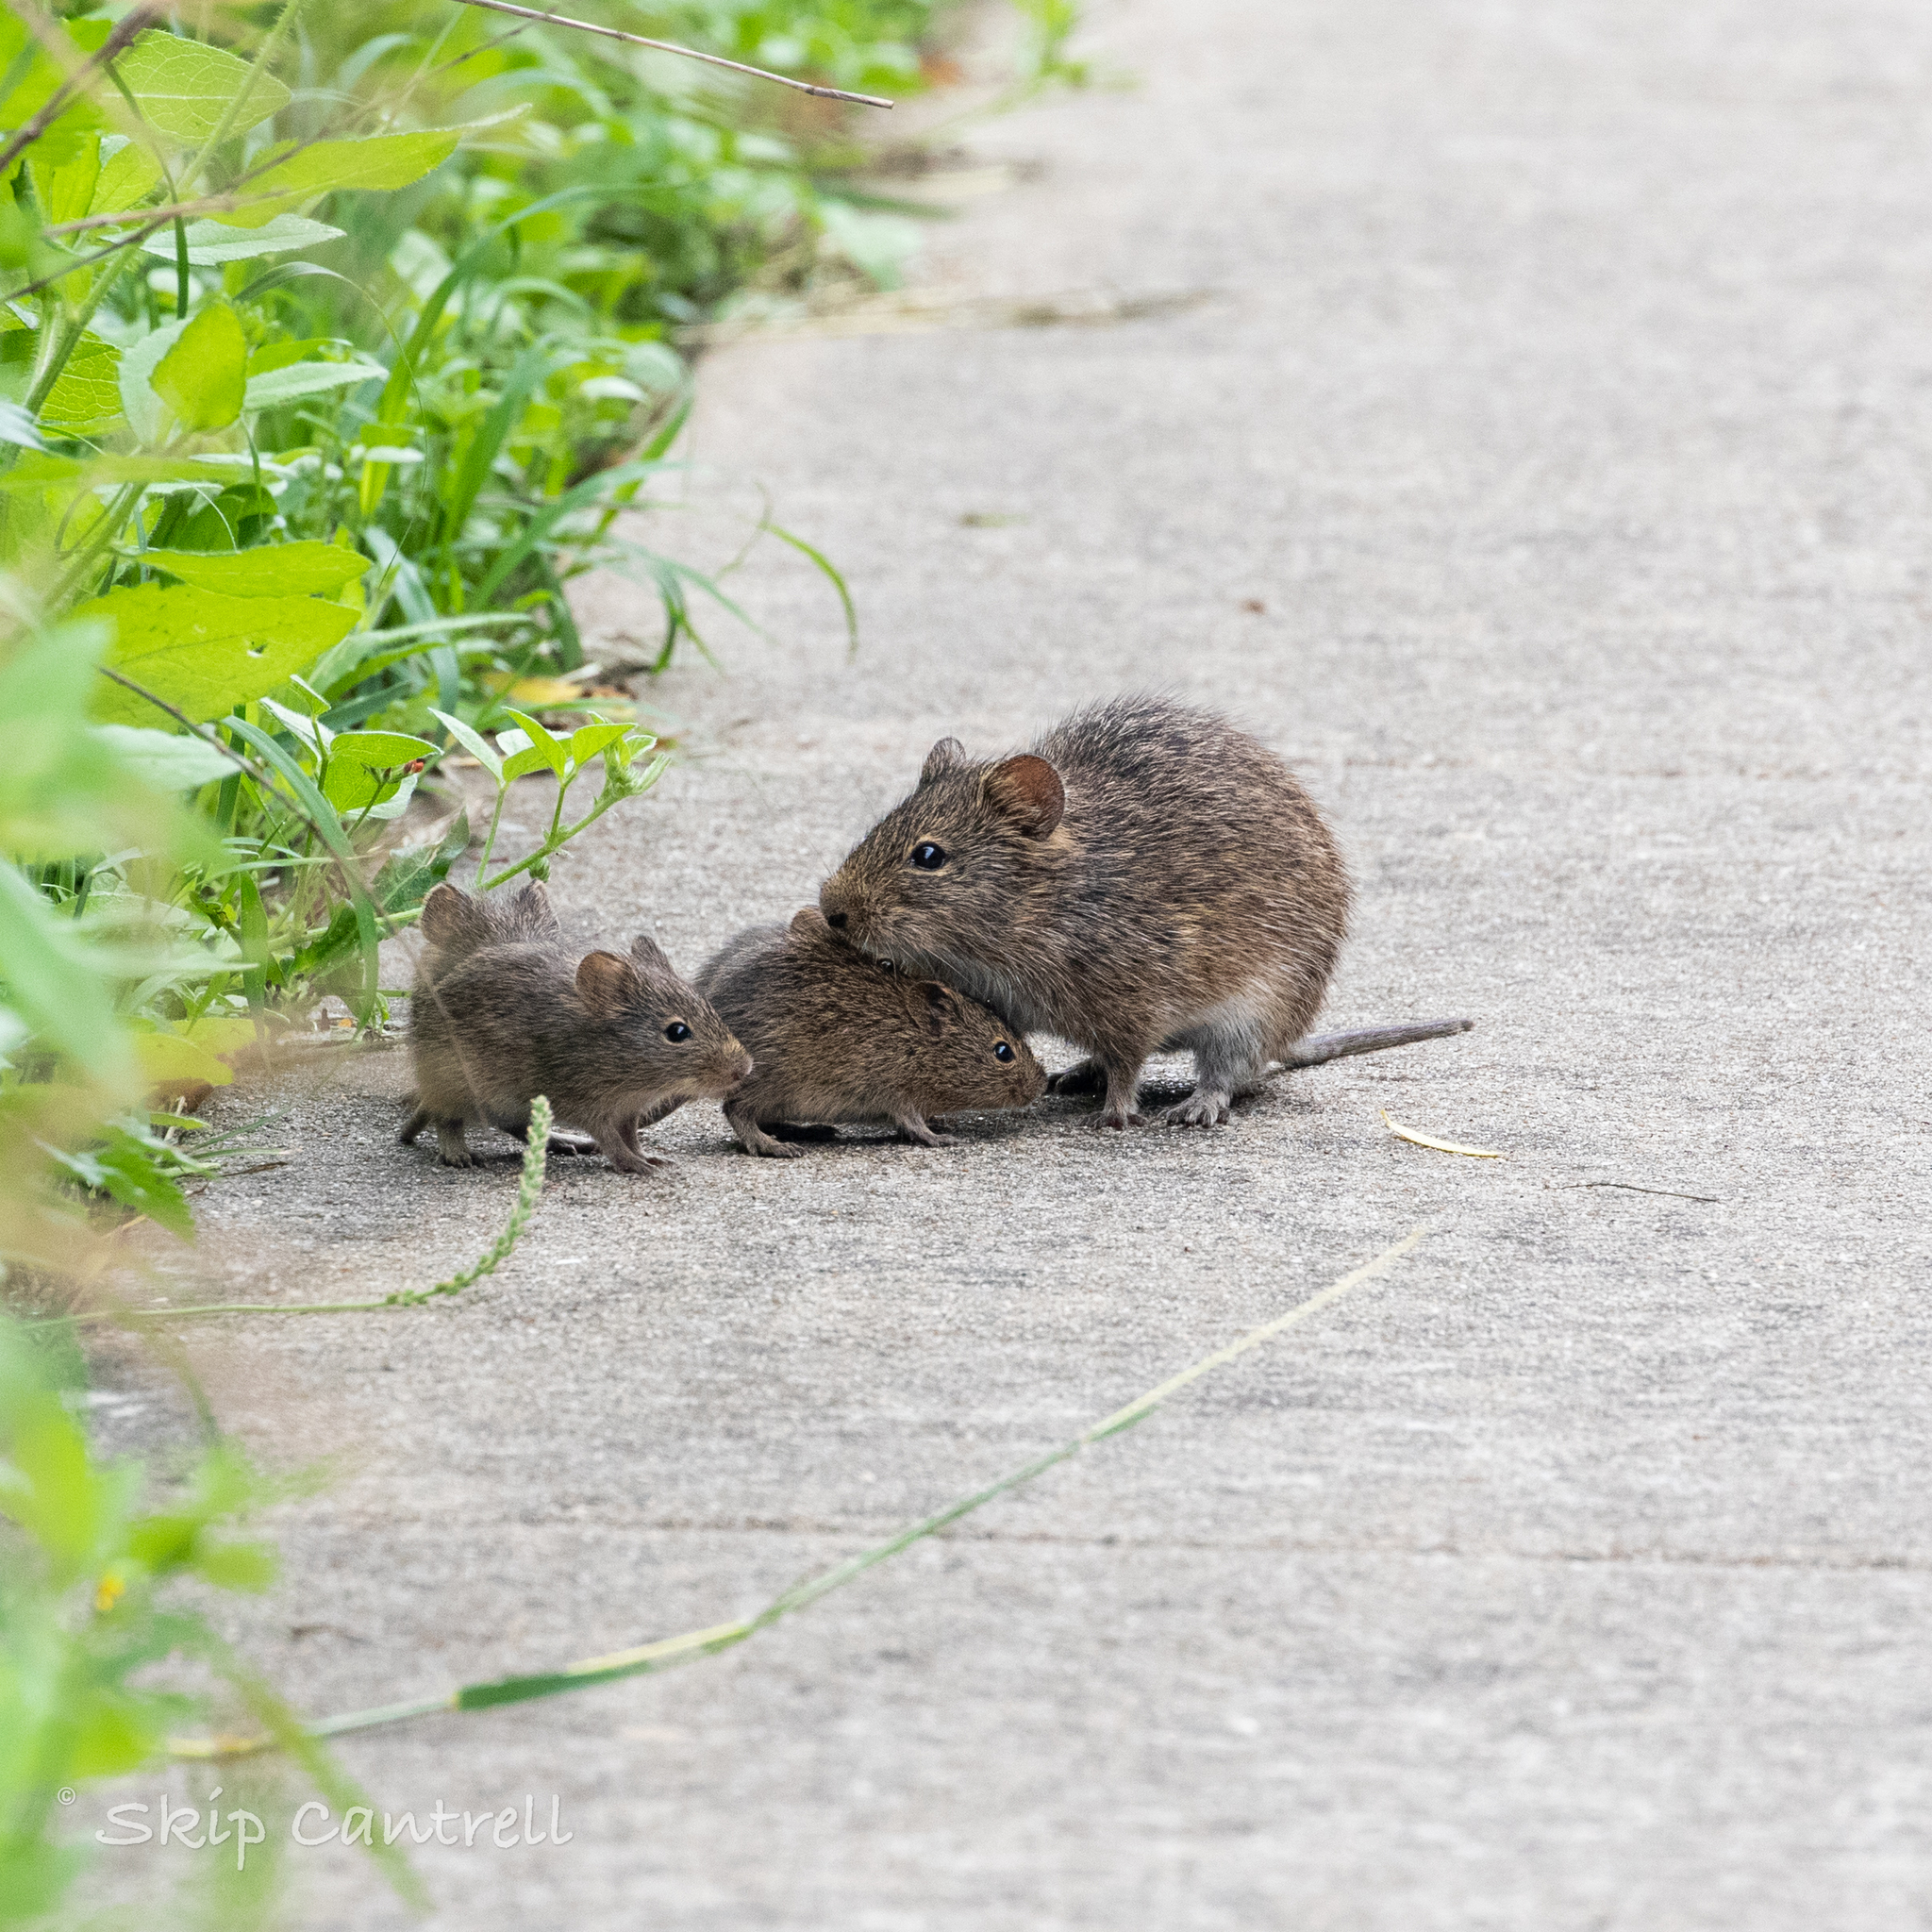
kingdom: Animalia
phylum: Chordata
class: Mammalia
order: Rodentia
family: Cricetidae
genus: Sigmodon
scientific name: Sigmodon hispidus
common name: Hispid cotton rat
